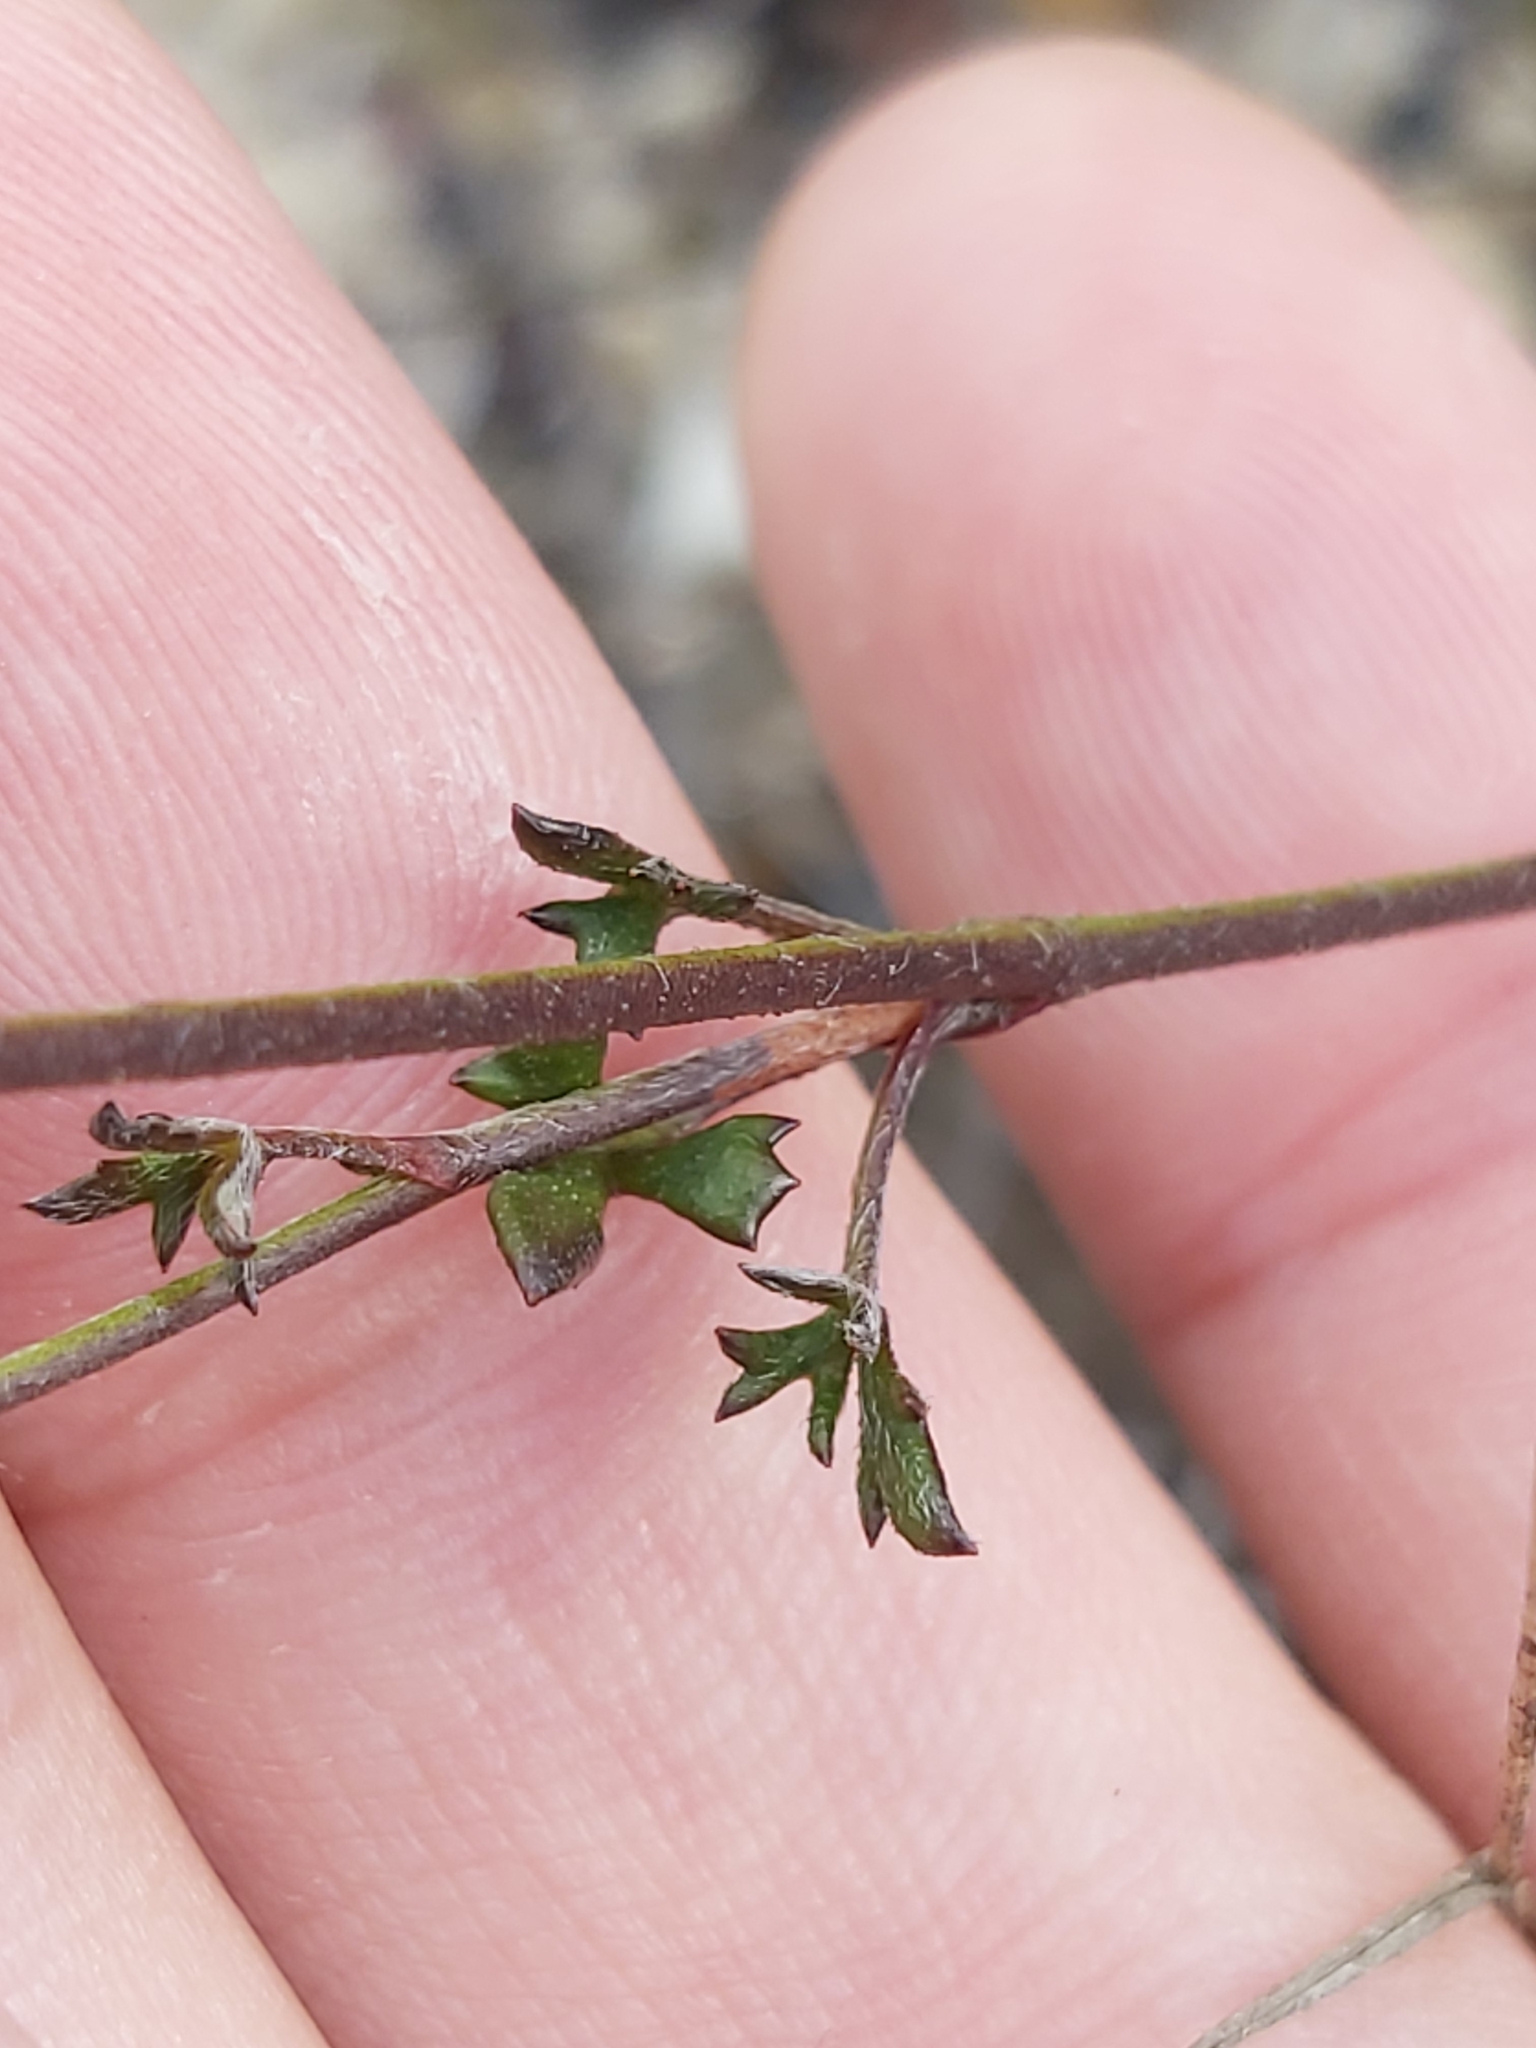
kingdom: Plantae
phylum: Tracheophyta
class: Magnoliopsida
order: Apiales
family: Apiaceae
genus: Actinotus
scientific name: Actinotus minor
